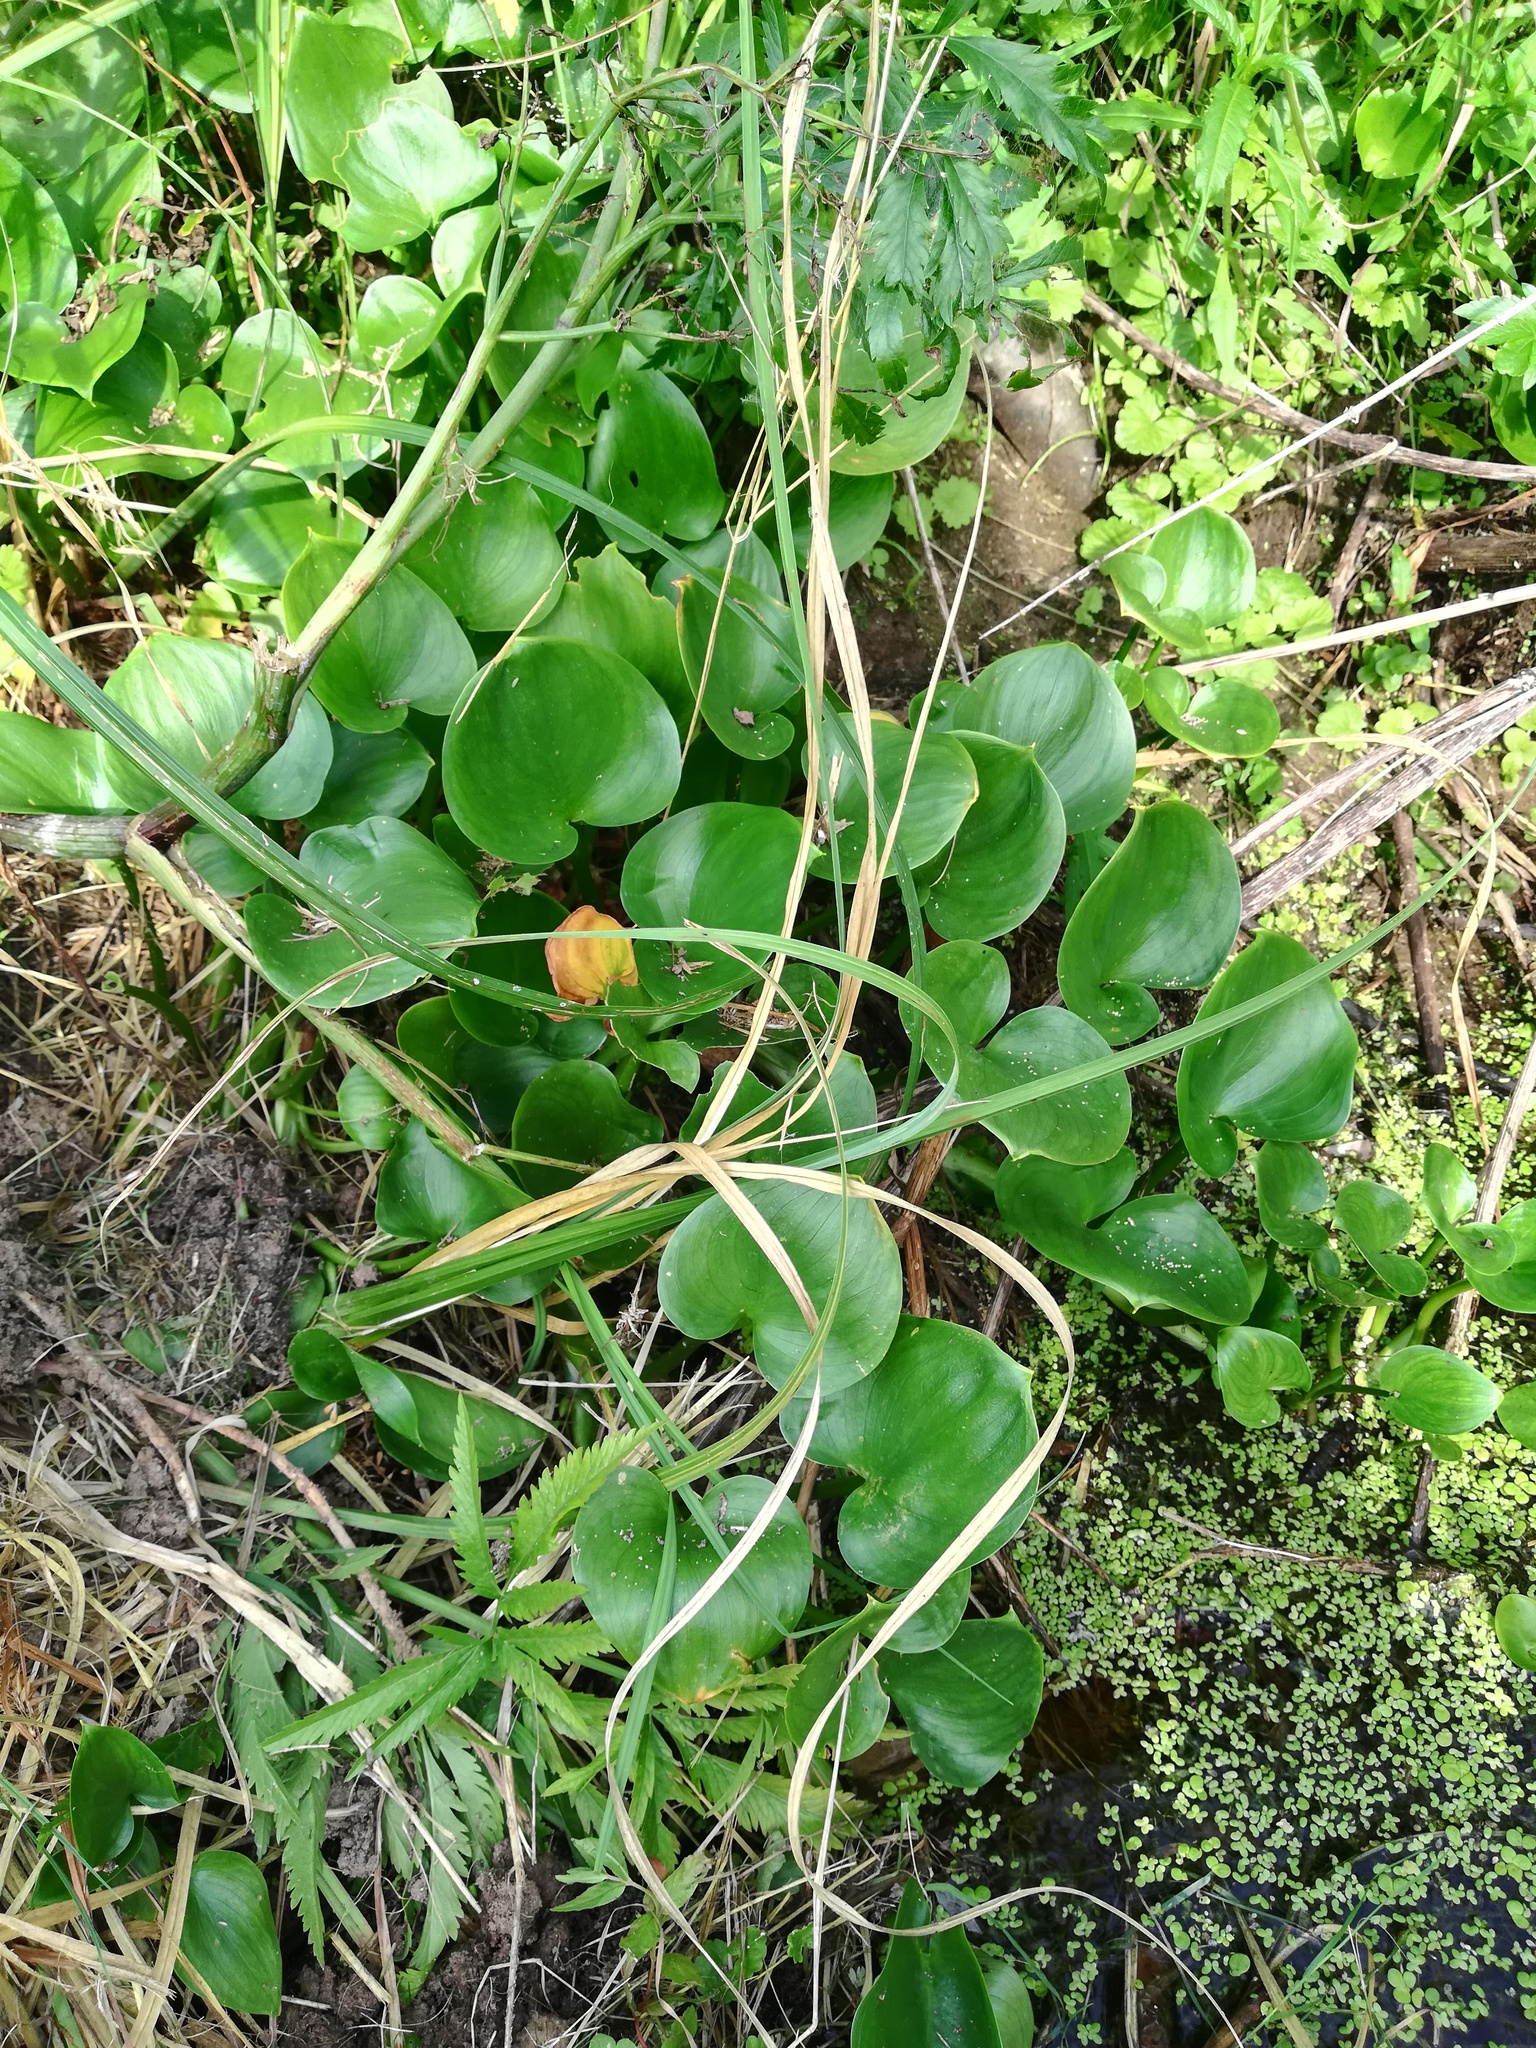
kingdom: Plantae
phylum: Tracheophyta
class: Liliopsida
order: Alismatales
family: Araceae
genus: Calla
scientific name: Calla palustris
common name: Bog arum
